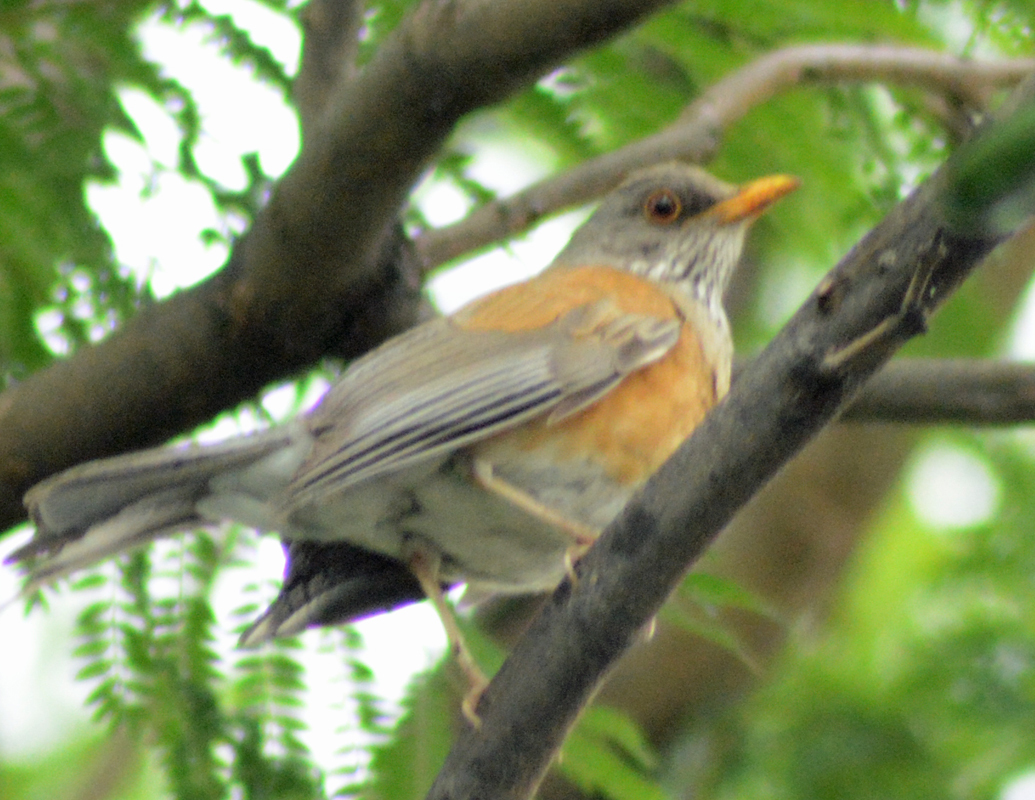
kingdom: Animalia
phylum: Chordata
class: Aves
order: Passeriformes
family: Turdidae
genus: Turdus
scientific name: Turdus rufopalliatus
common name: Rufous-backed robin
